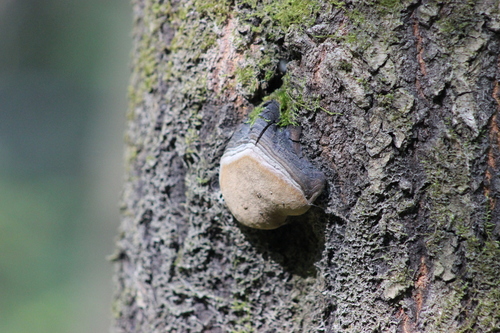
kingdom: Fungi
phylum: Basidiomycota
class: Agaricomycetes
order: Hymenochaetales
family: Hymenochaetaceae
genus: Phellinus
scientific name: Phellinus tremulae
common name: Aspen bracket
